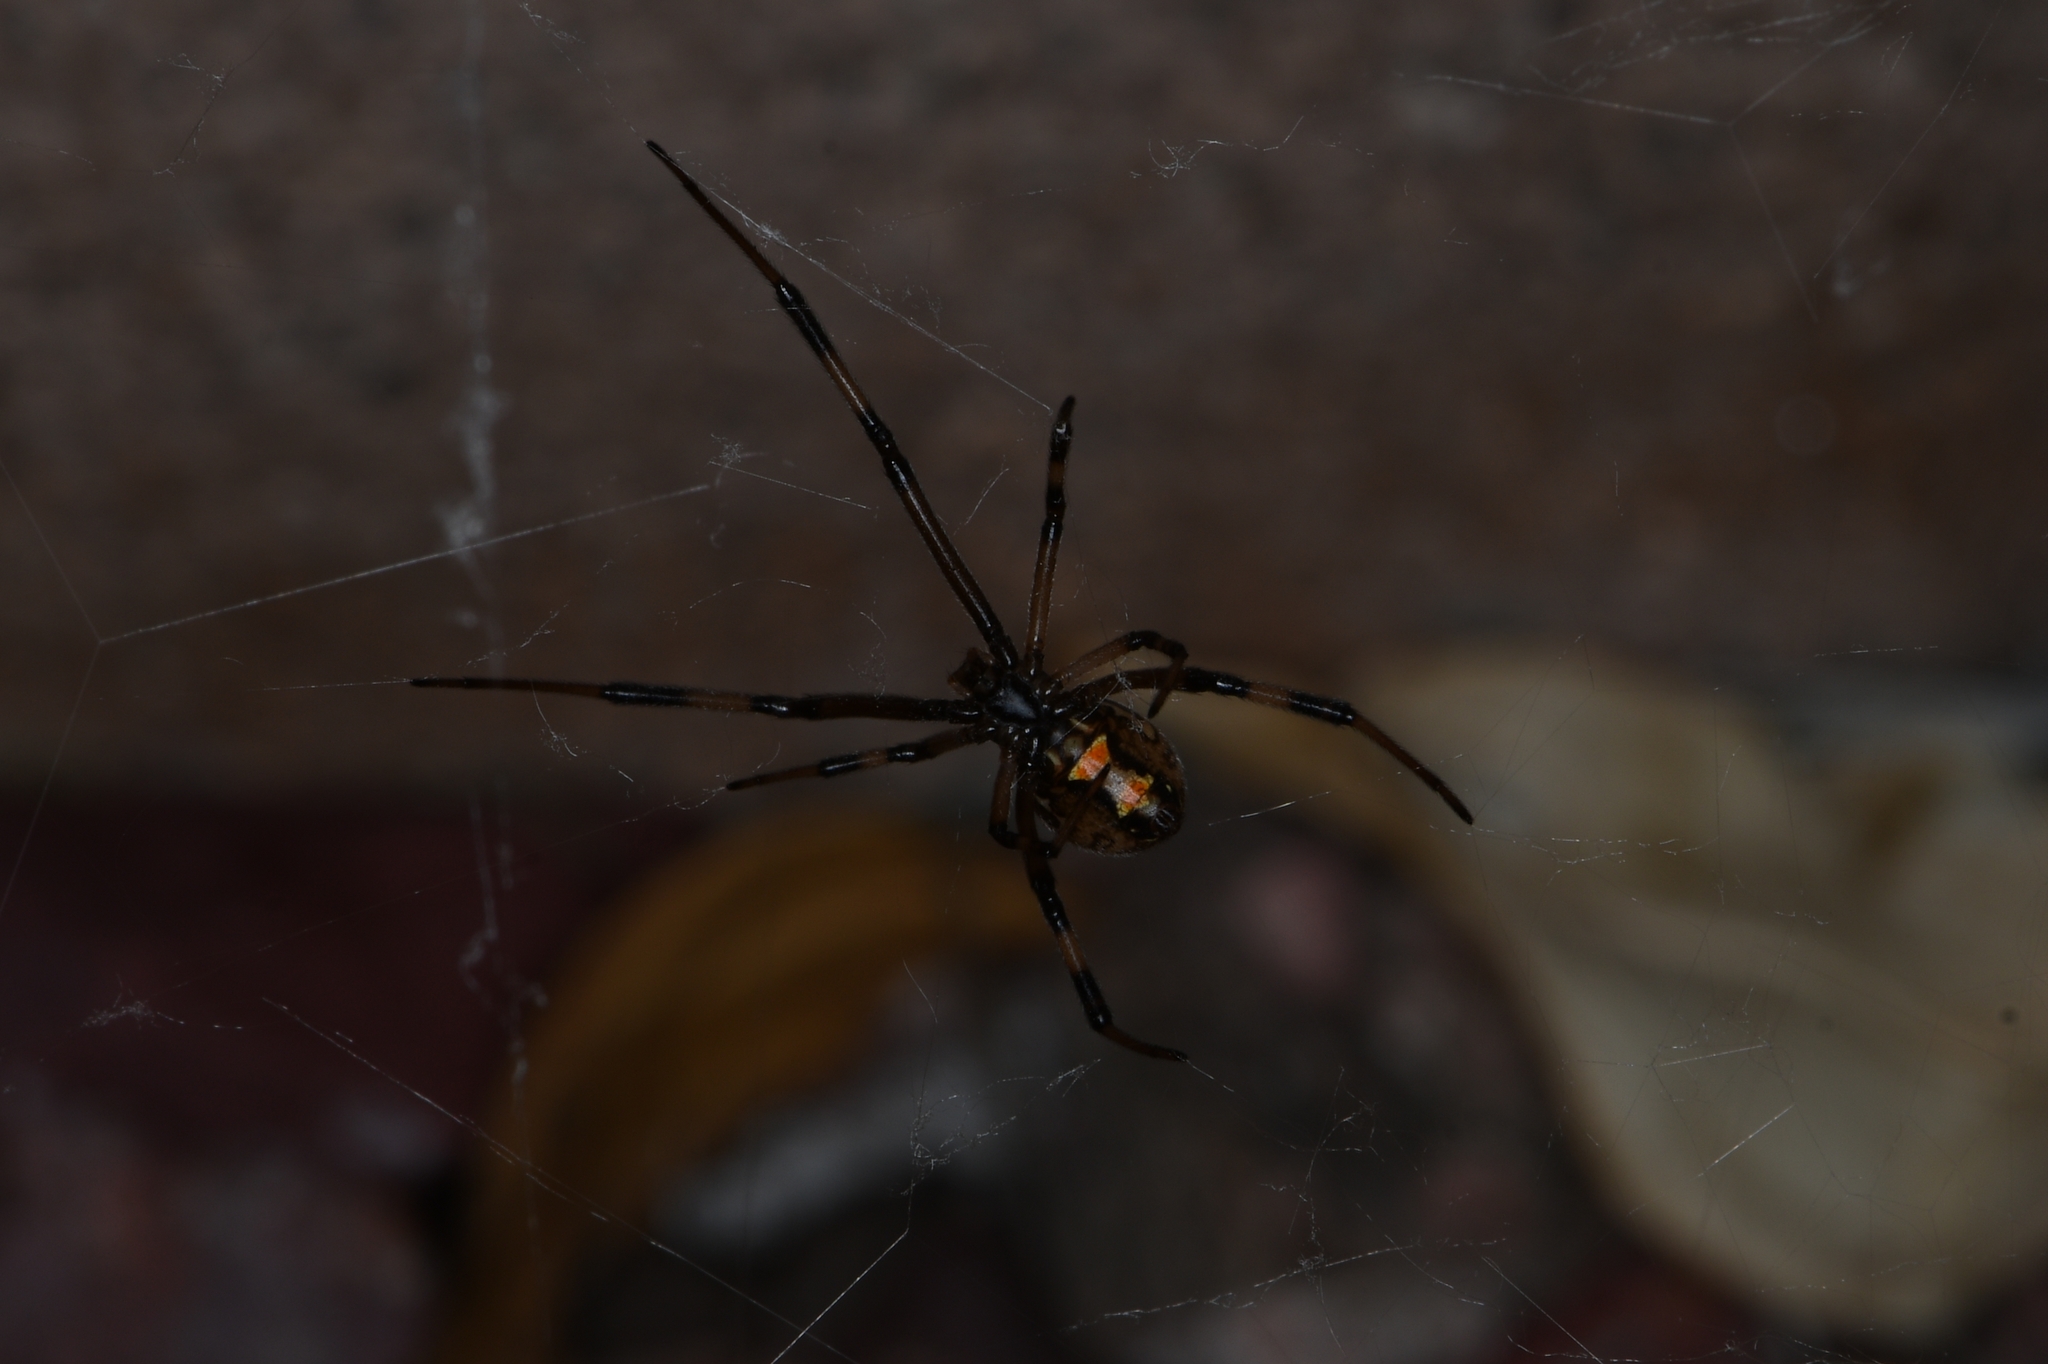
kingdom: Animalia
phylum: Arthropoda
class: Arachnida
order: Araneae
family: Theridiidae
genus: Latrodectus
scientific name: Latrodectus hesperus
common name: Western black widow
